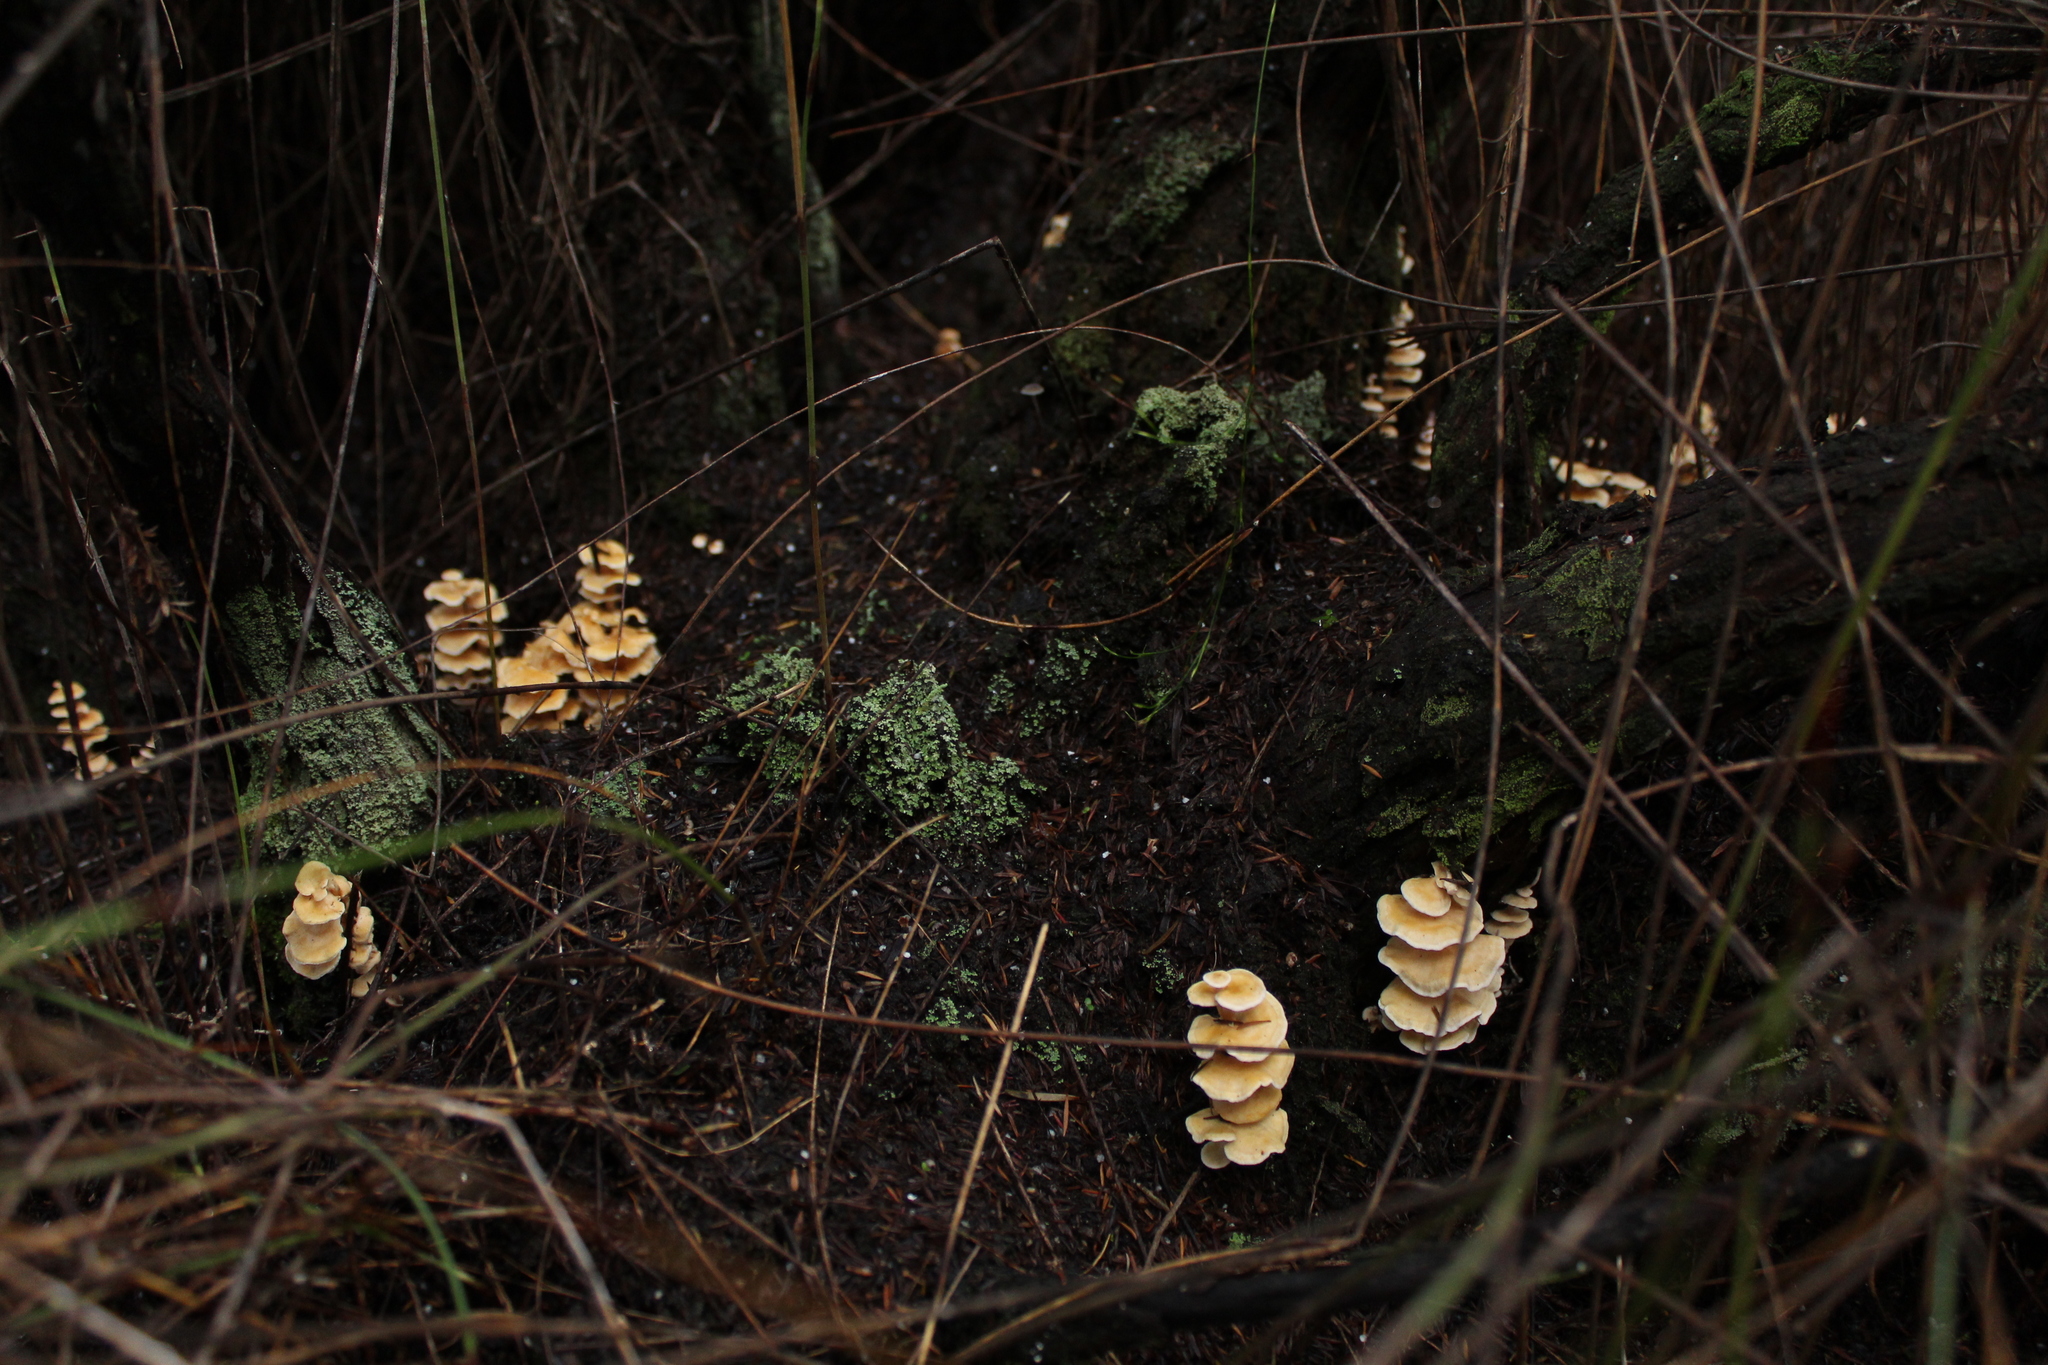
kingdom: Fungi
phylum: Basidiomycota
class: Agaricomycetes
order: Amylocorticiales
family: Amylocorticiaceae
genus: Podoserpula
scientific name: Podoserpula pusio
